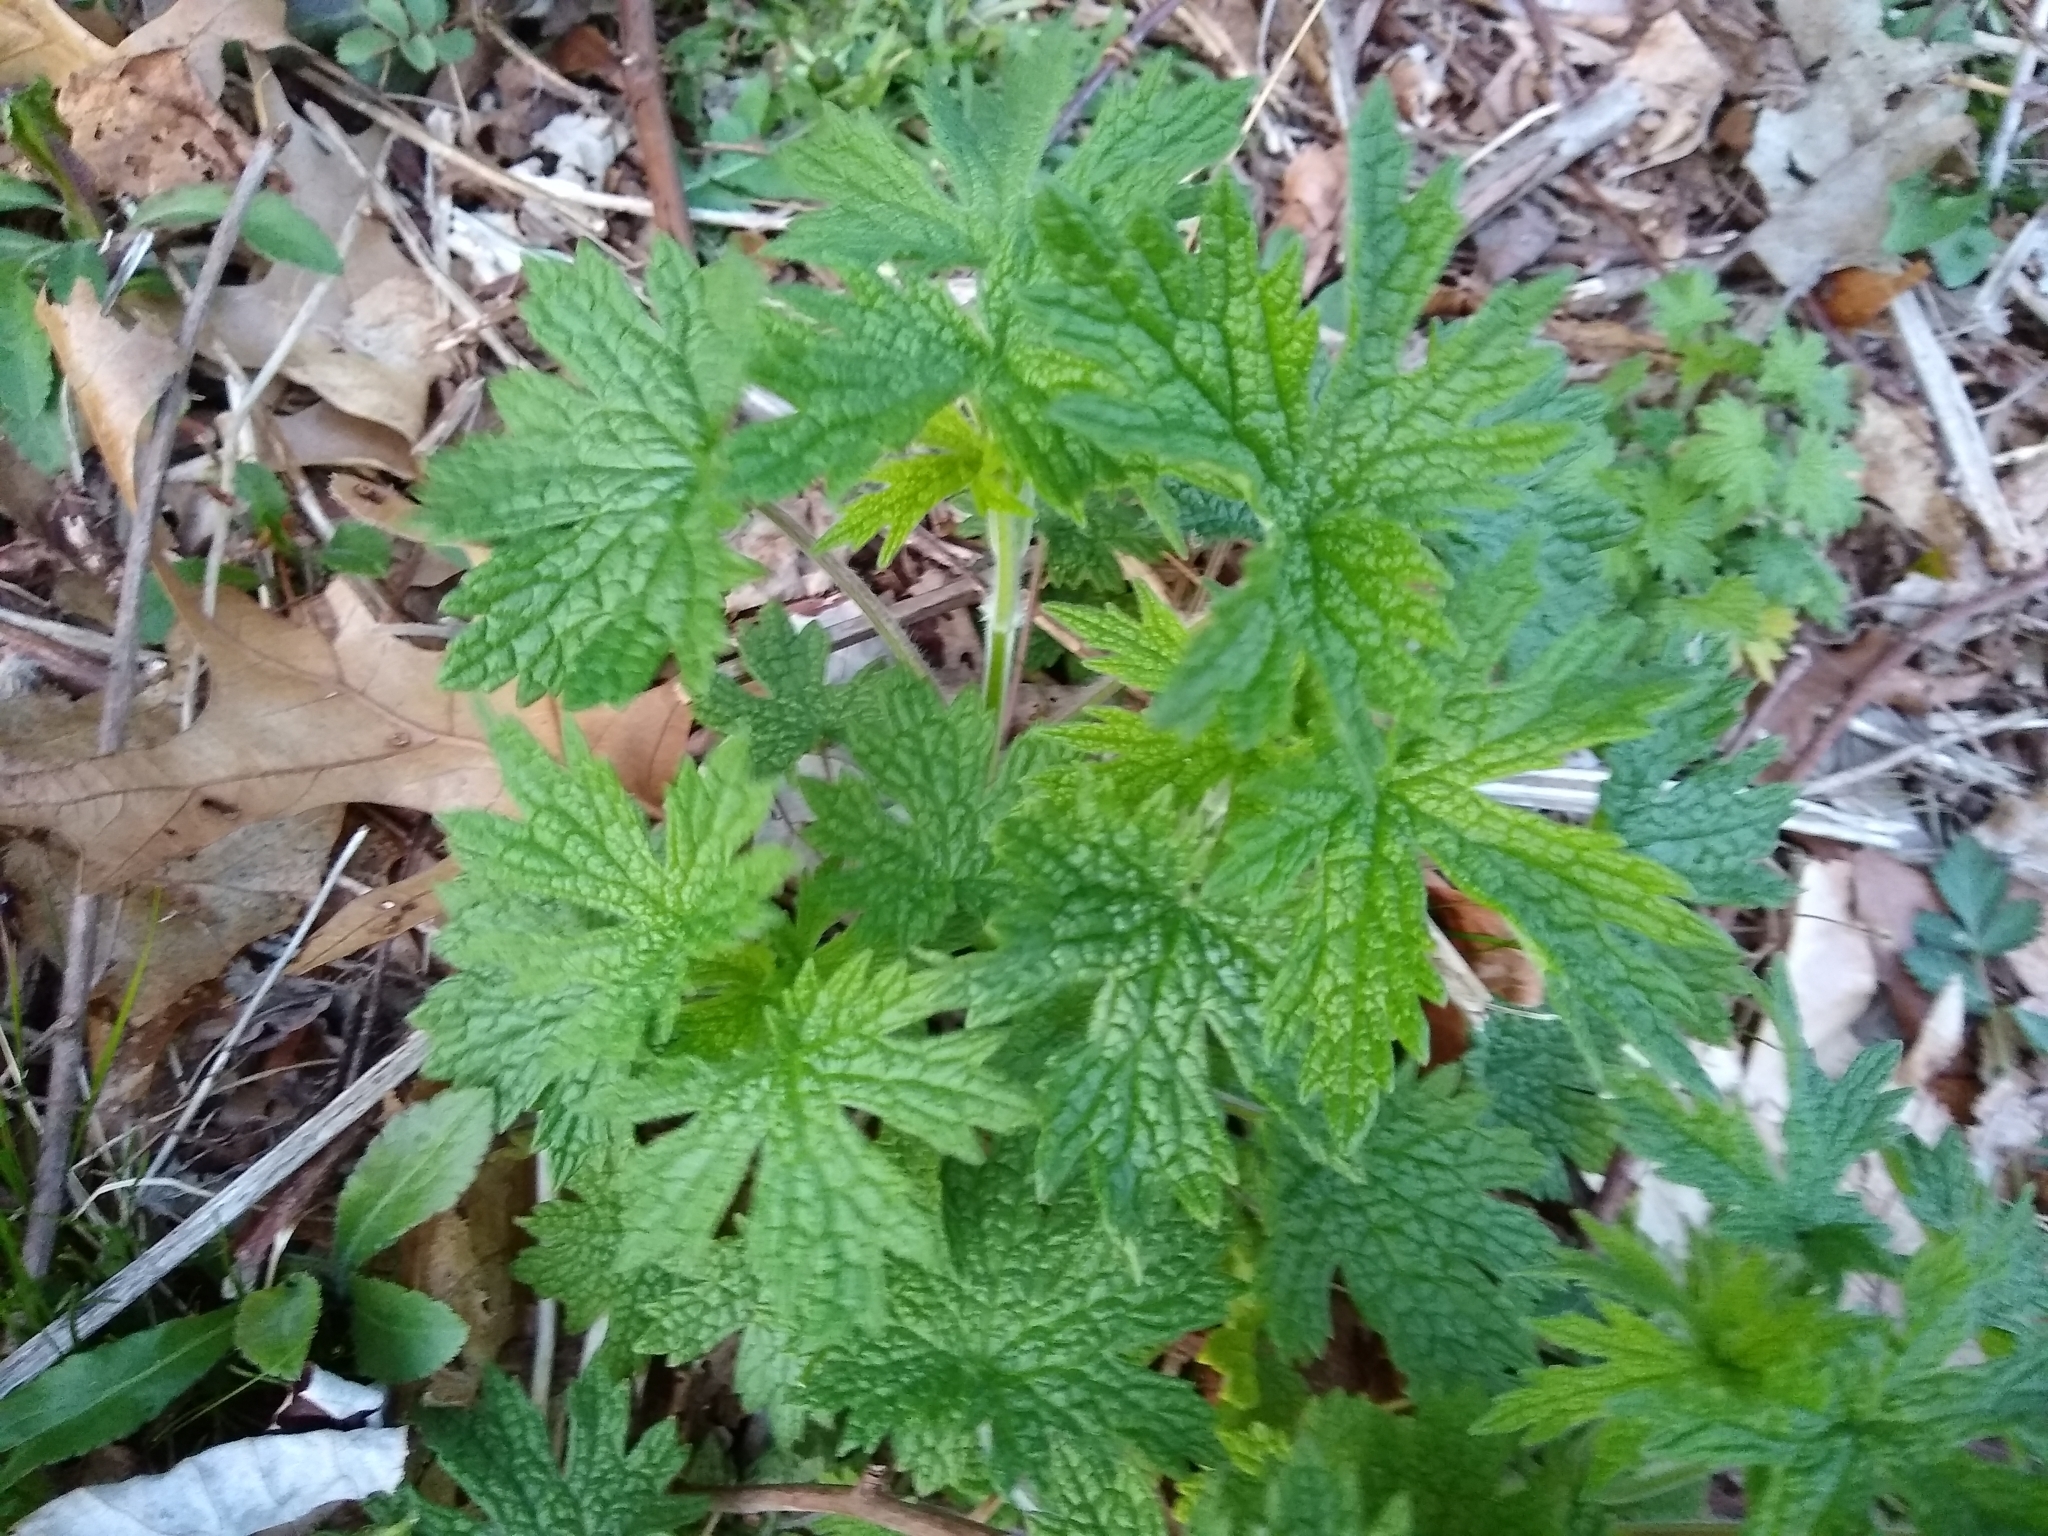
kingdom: Plantae
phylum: Tracheophyta
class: Magnoliopsida
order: Lamiales
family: Lamiaceae
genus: Leonurus
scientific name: Leonurus cardiaca
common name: Motherwort
